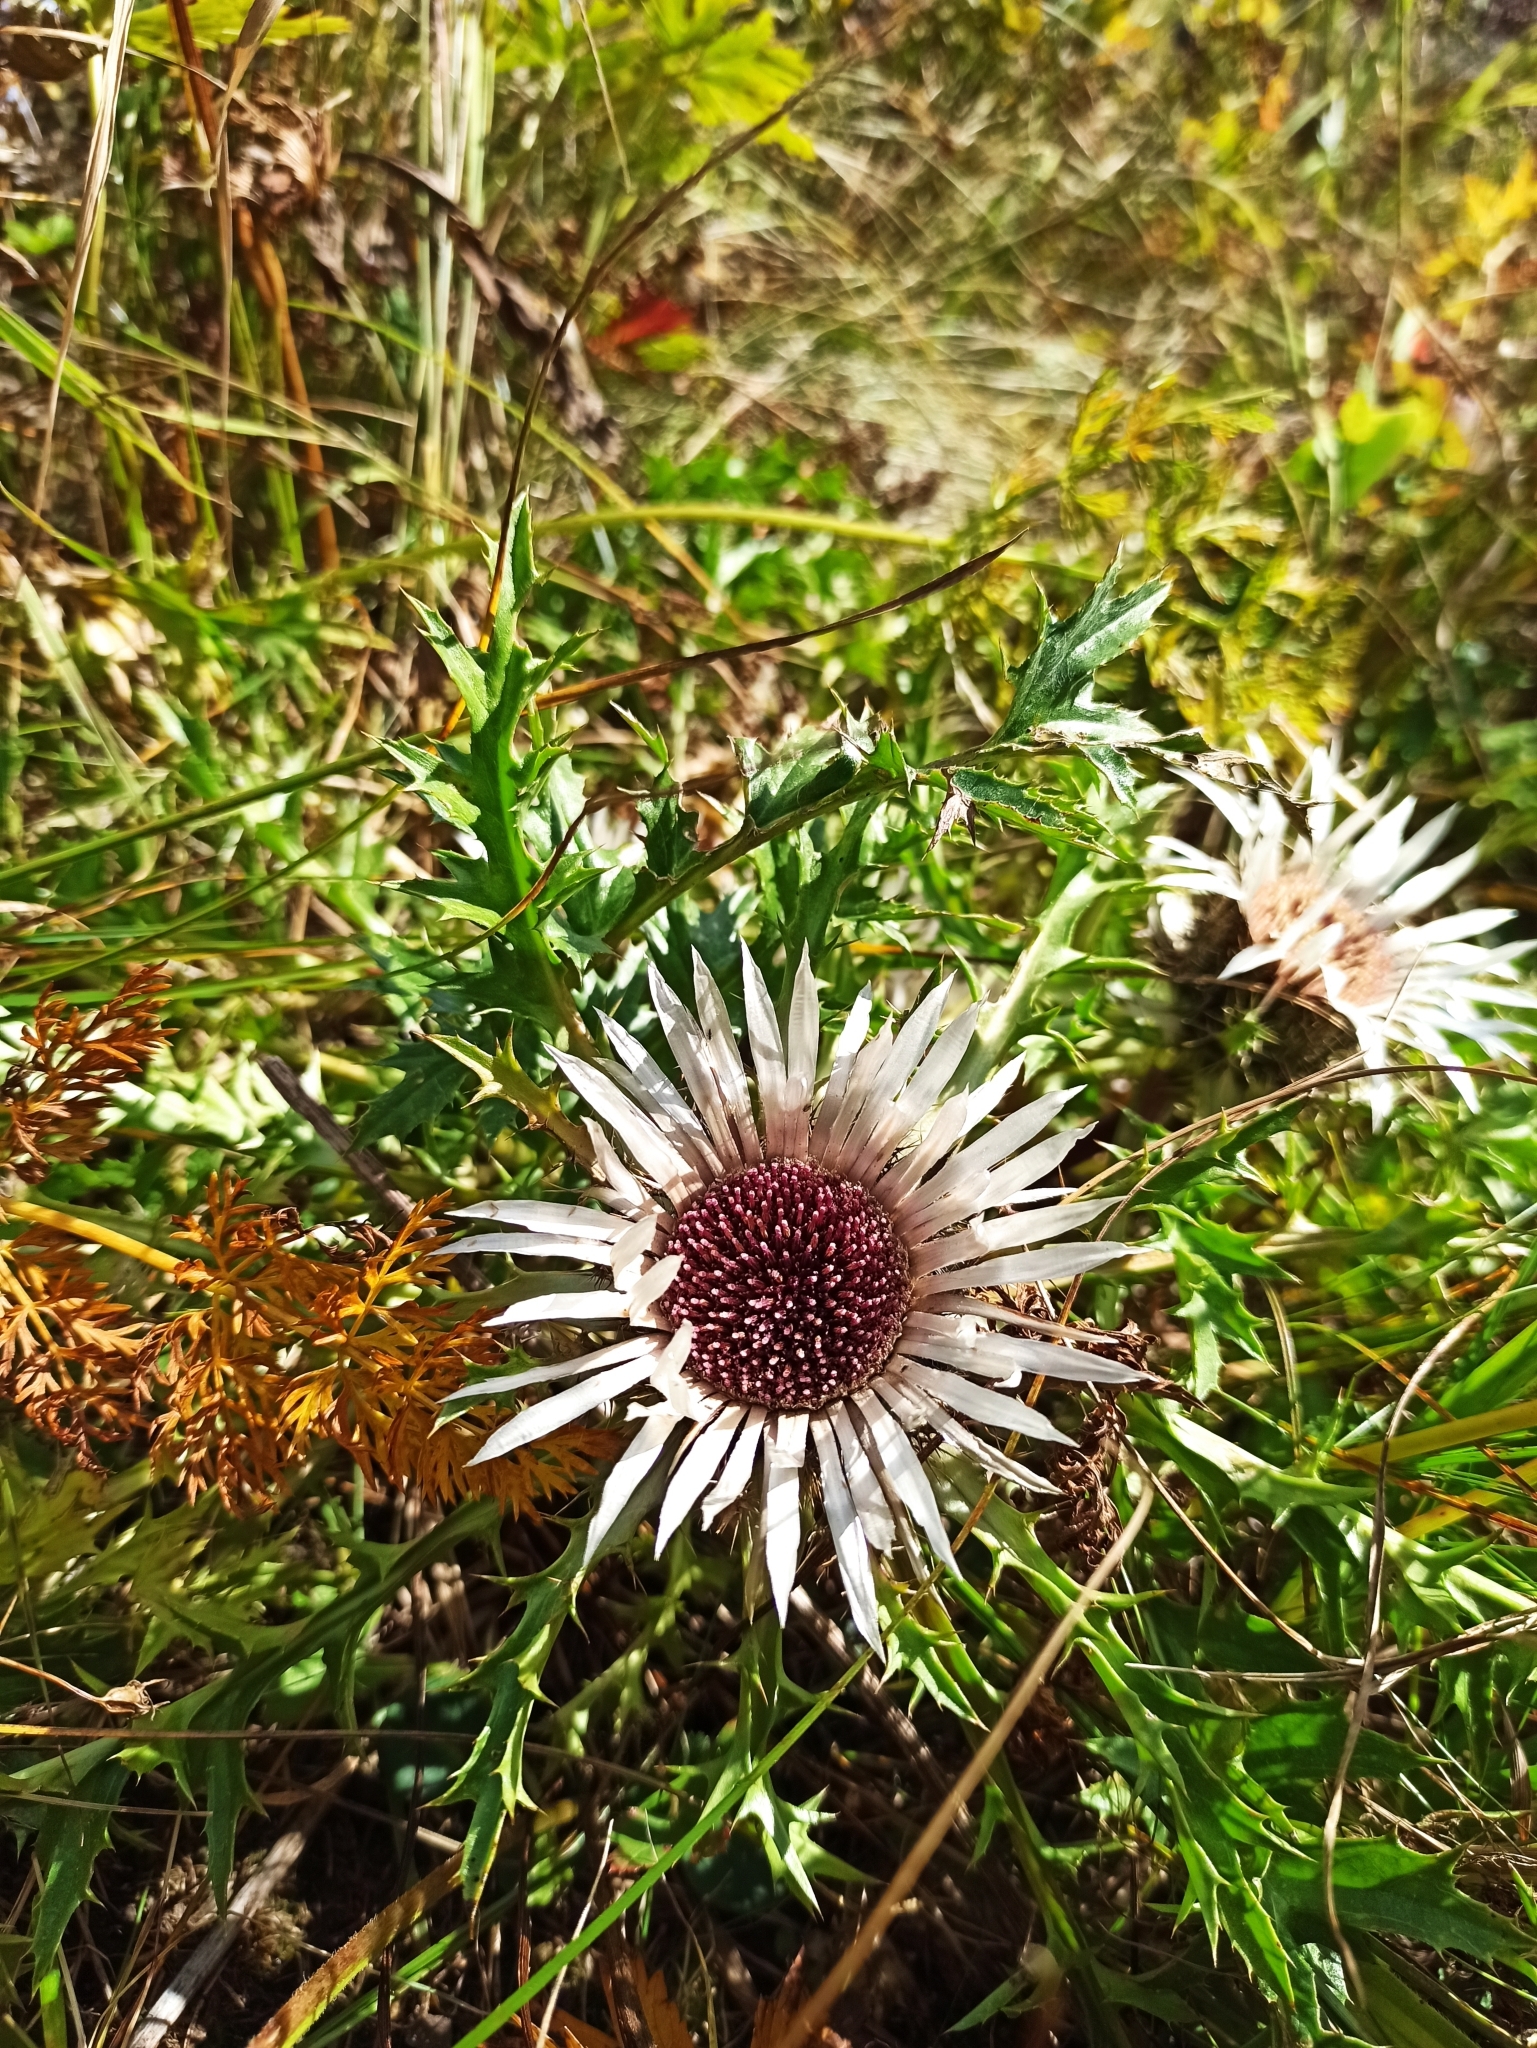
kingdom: Plantae
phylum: Tracheophyta
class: Magnoliopsida
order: Asterales
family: Asteraceae
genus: Carlina
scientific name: Carlina acaulis
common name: Stemless carline thistle
